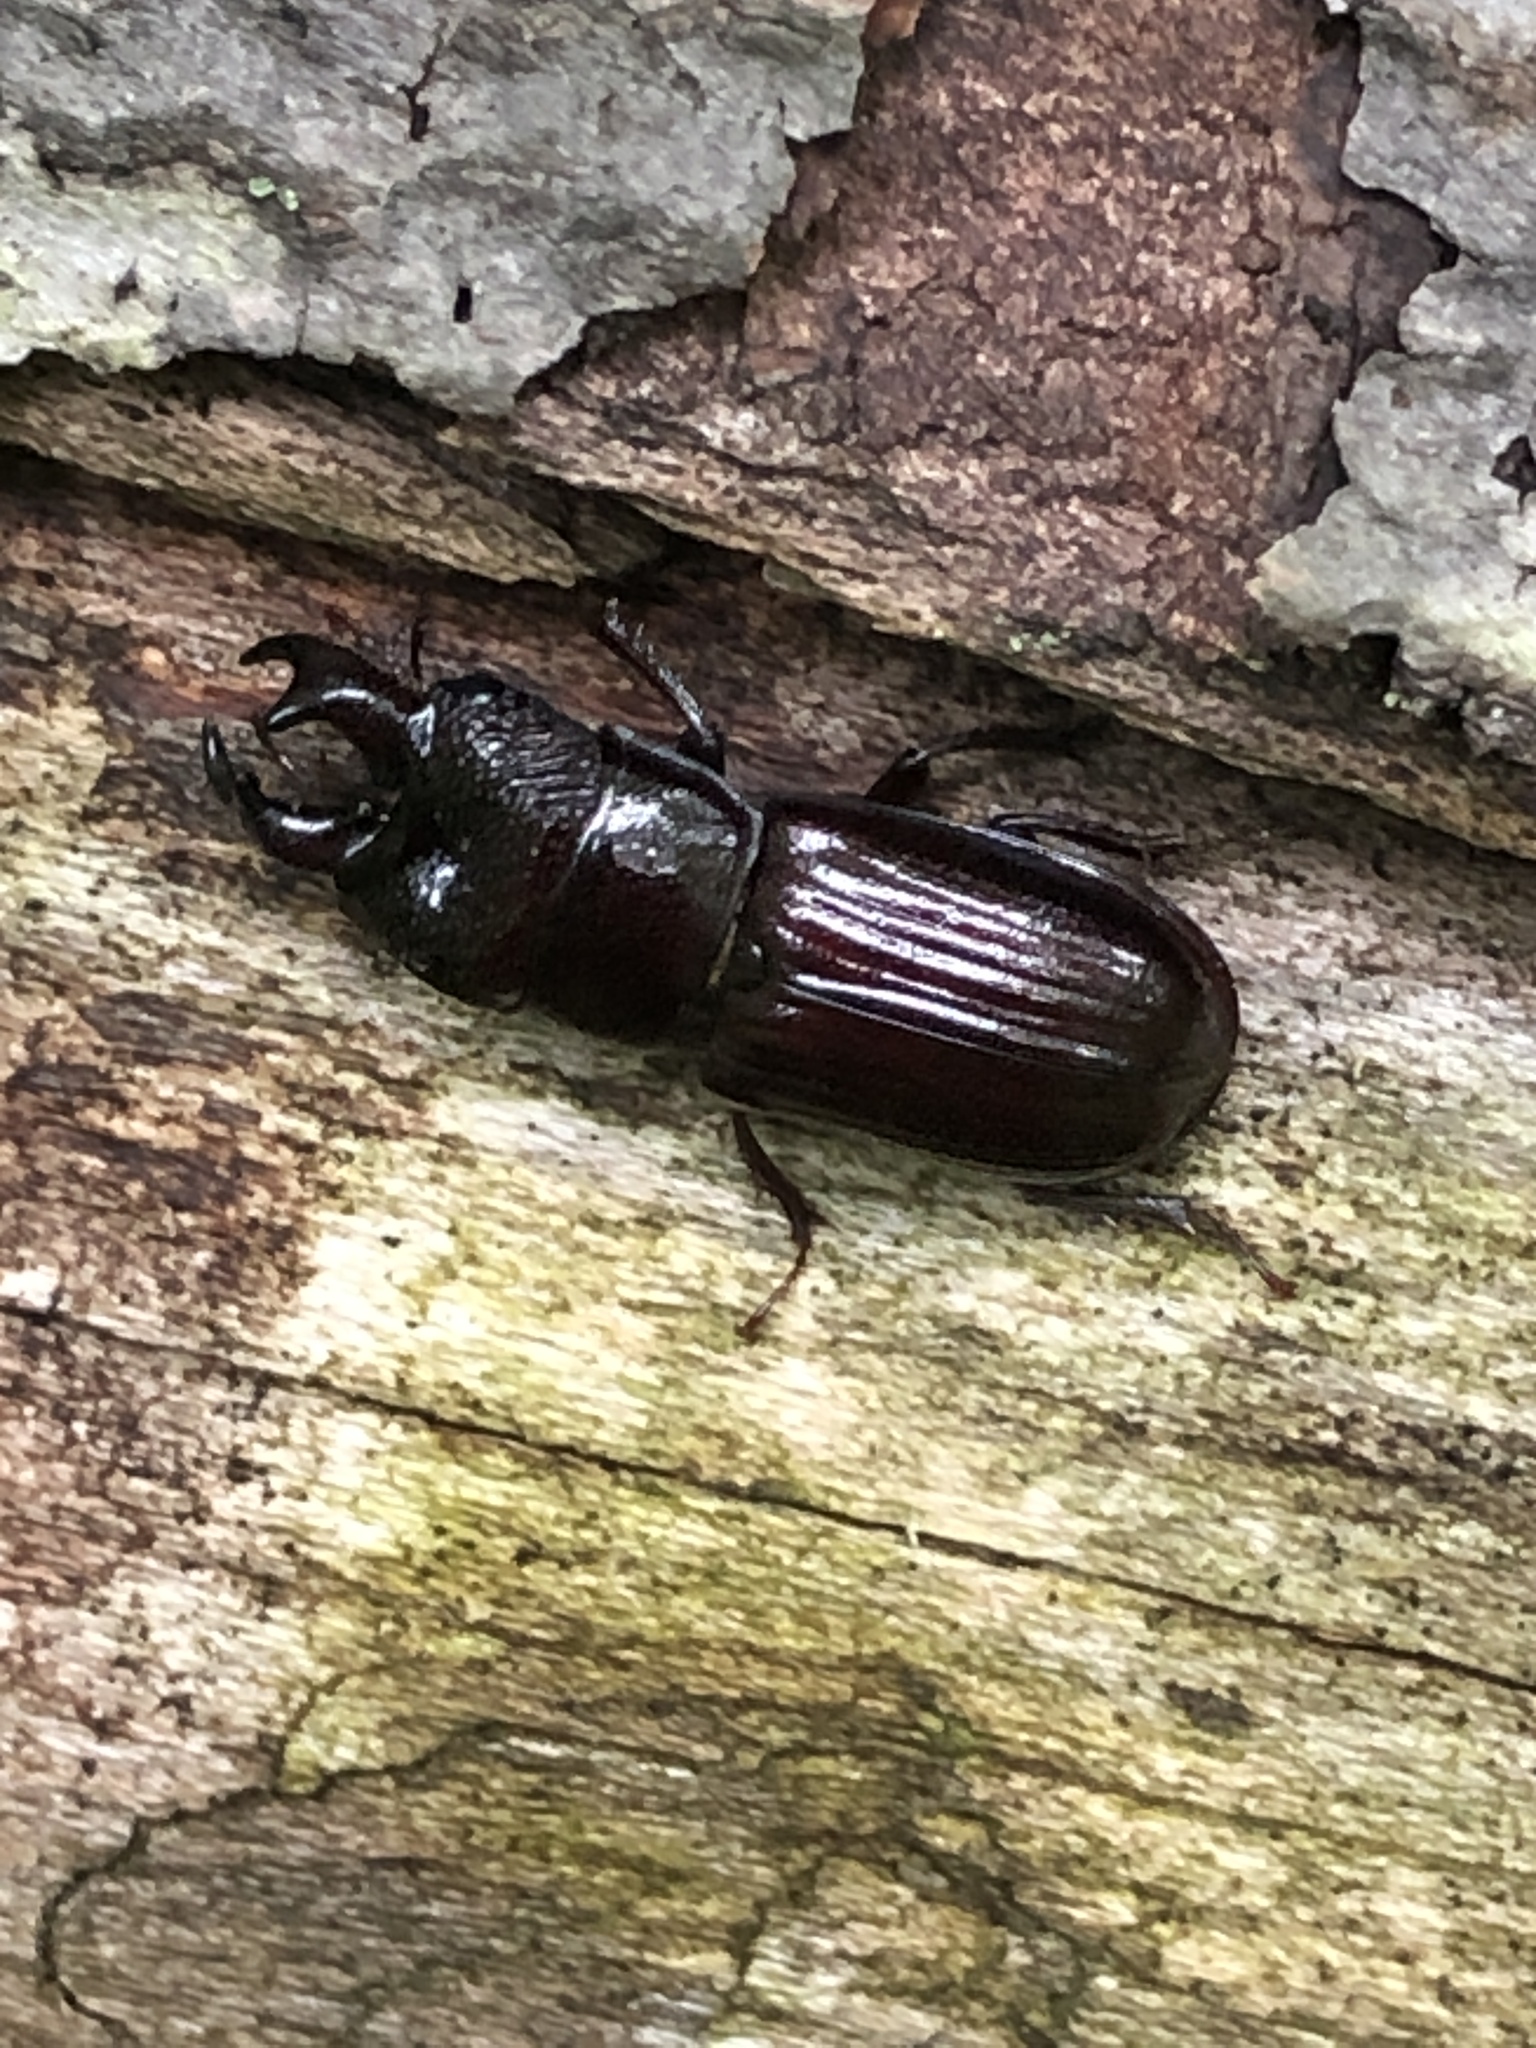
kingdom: Animalia
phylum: Arthropoda
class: Insecta
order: Coleoptera
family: Lucanidae
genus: Ceruchus
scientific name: Ceruchus piceus
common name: Red-rot decay stag beetle
